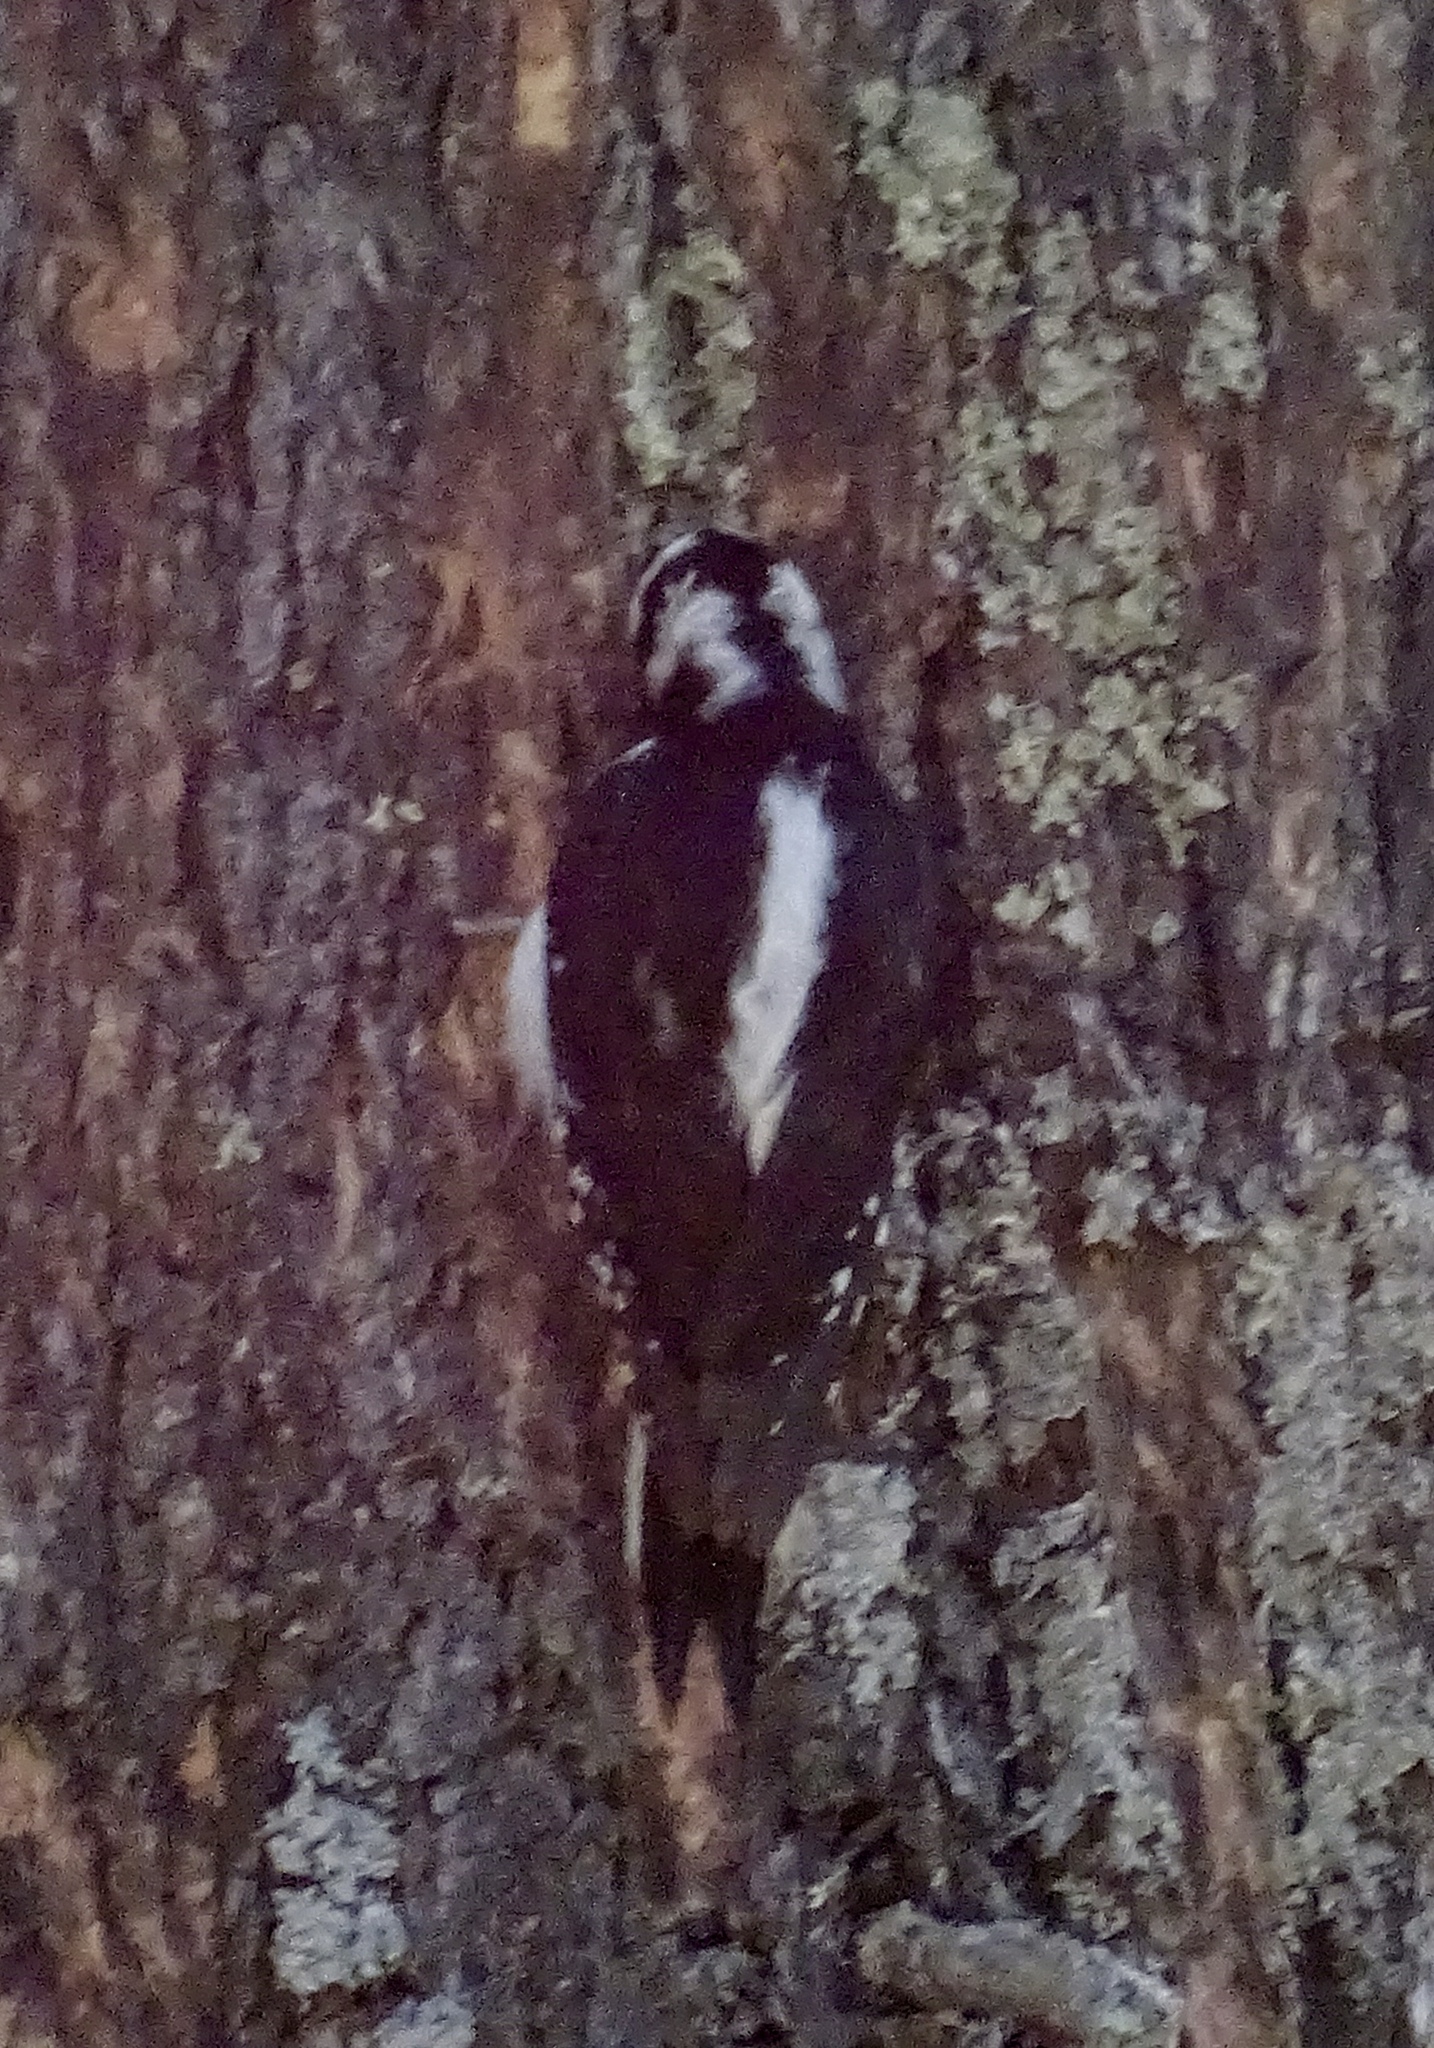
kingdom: Animalia
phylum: Chordata
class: Aves
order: Piciformes
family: Picidae
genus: Leuconotopicus
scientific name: Leuconotopicus villosus
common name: Hairy woodpecker
